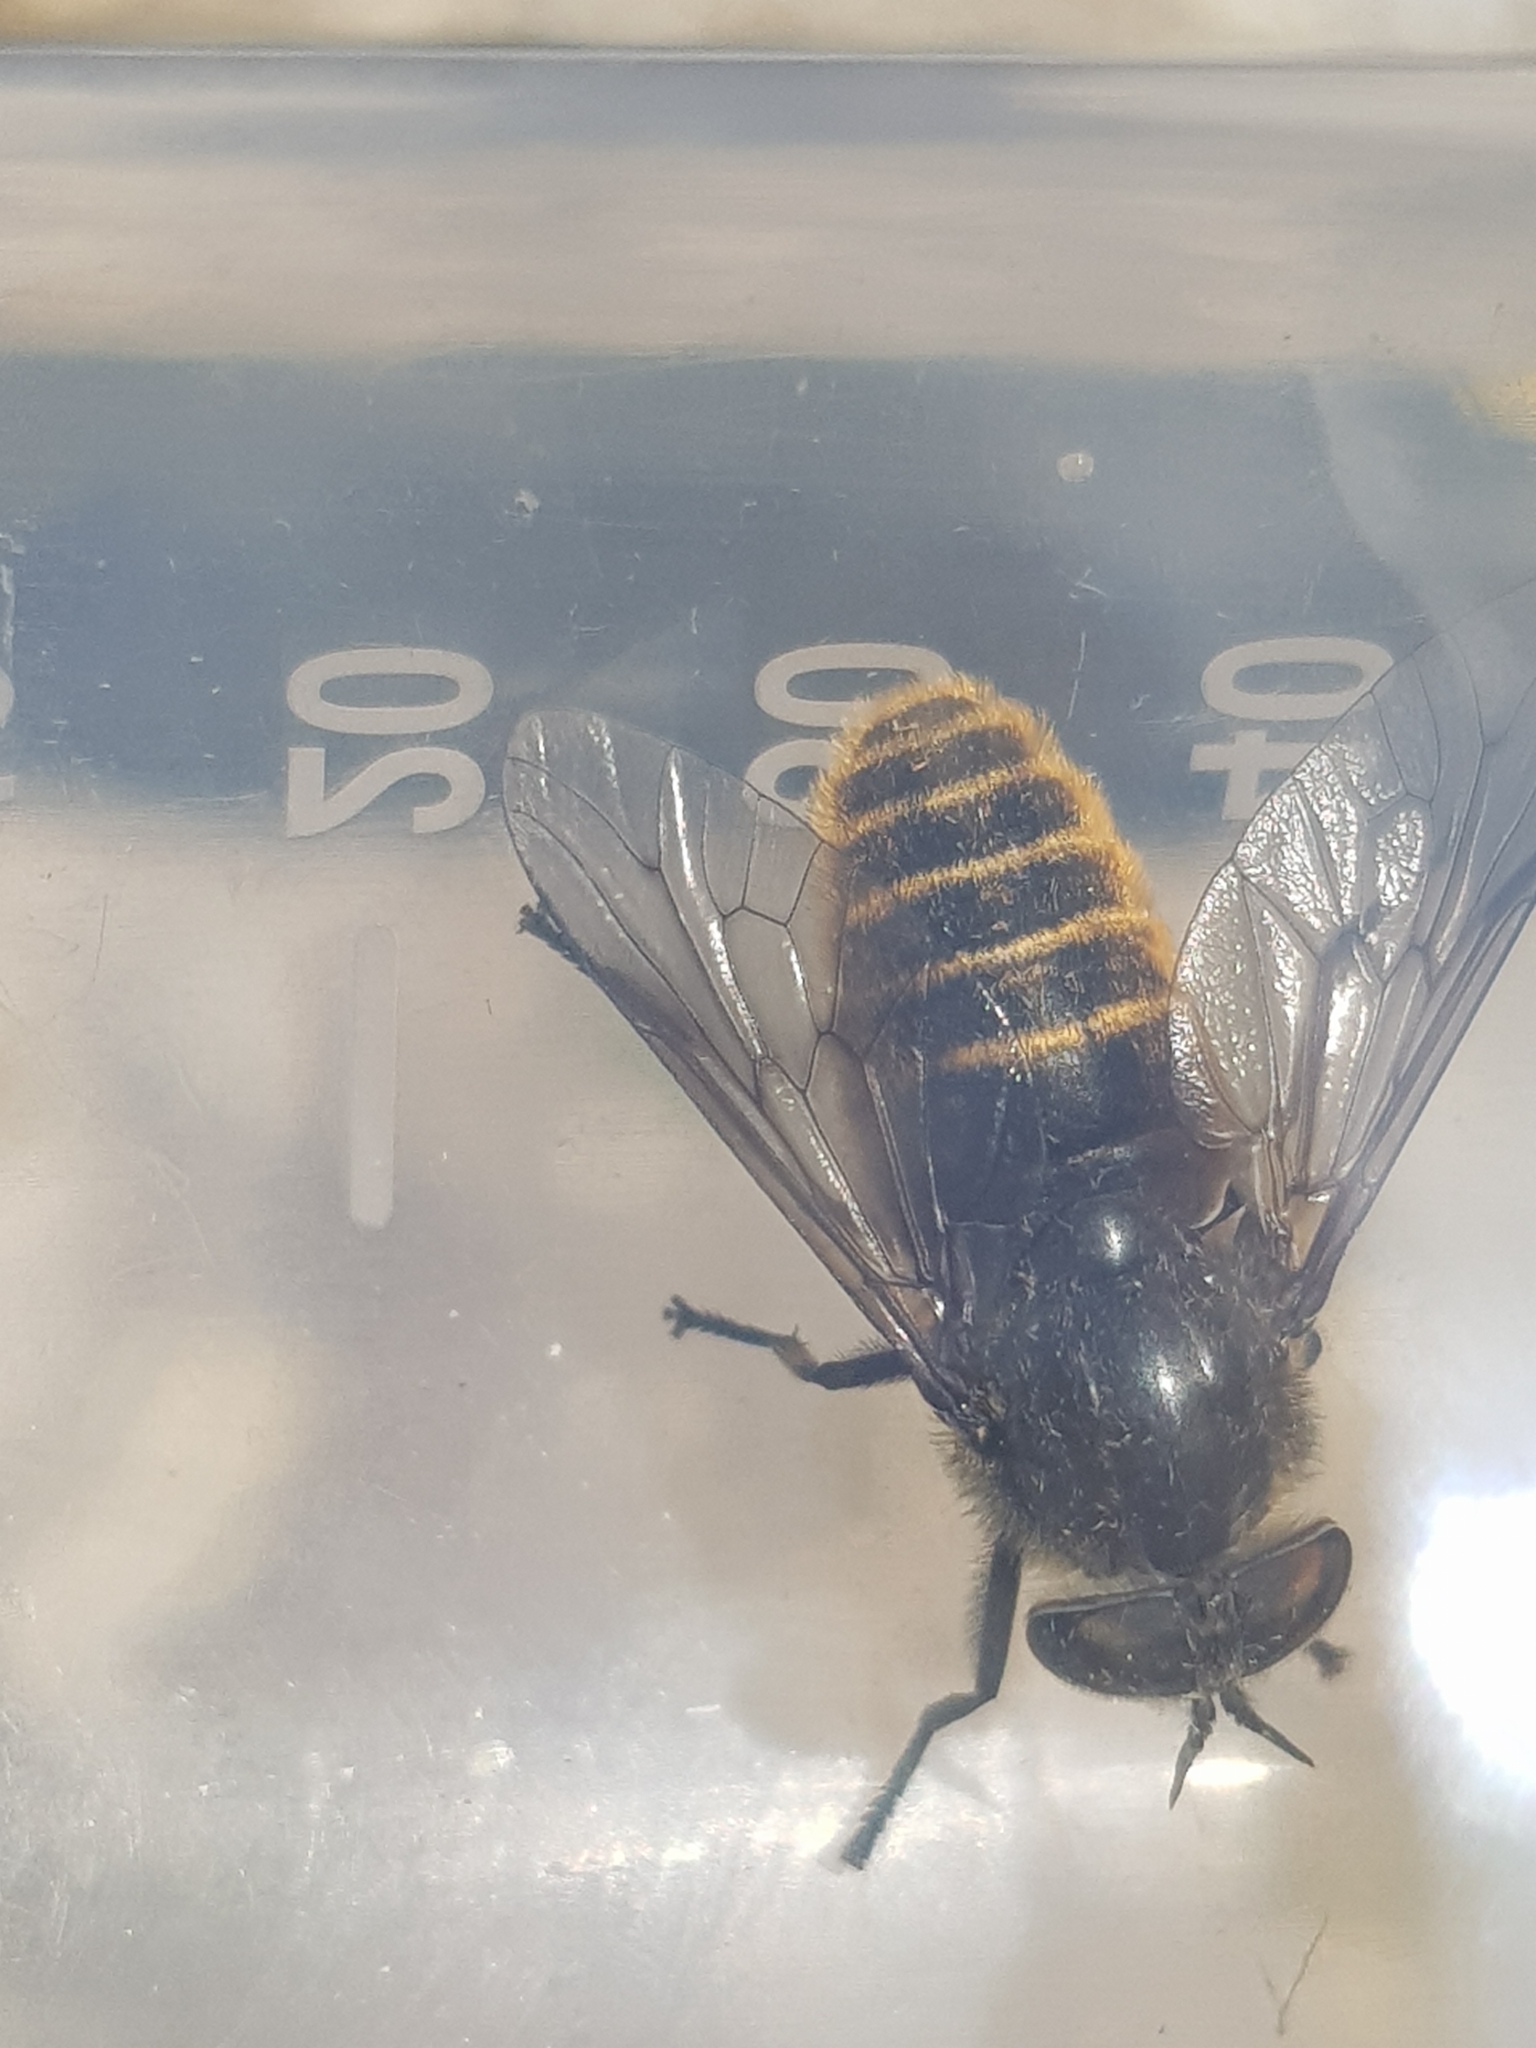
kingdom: Animalia
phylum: Arthropoda
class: Insecta
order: Diptera
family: Tabanidae
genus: Hybomitra
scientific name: Hybomitra auripila
